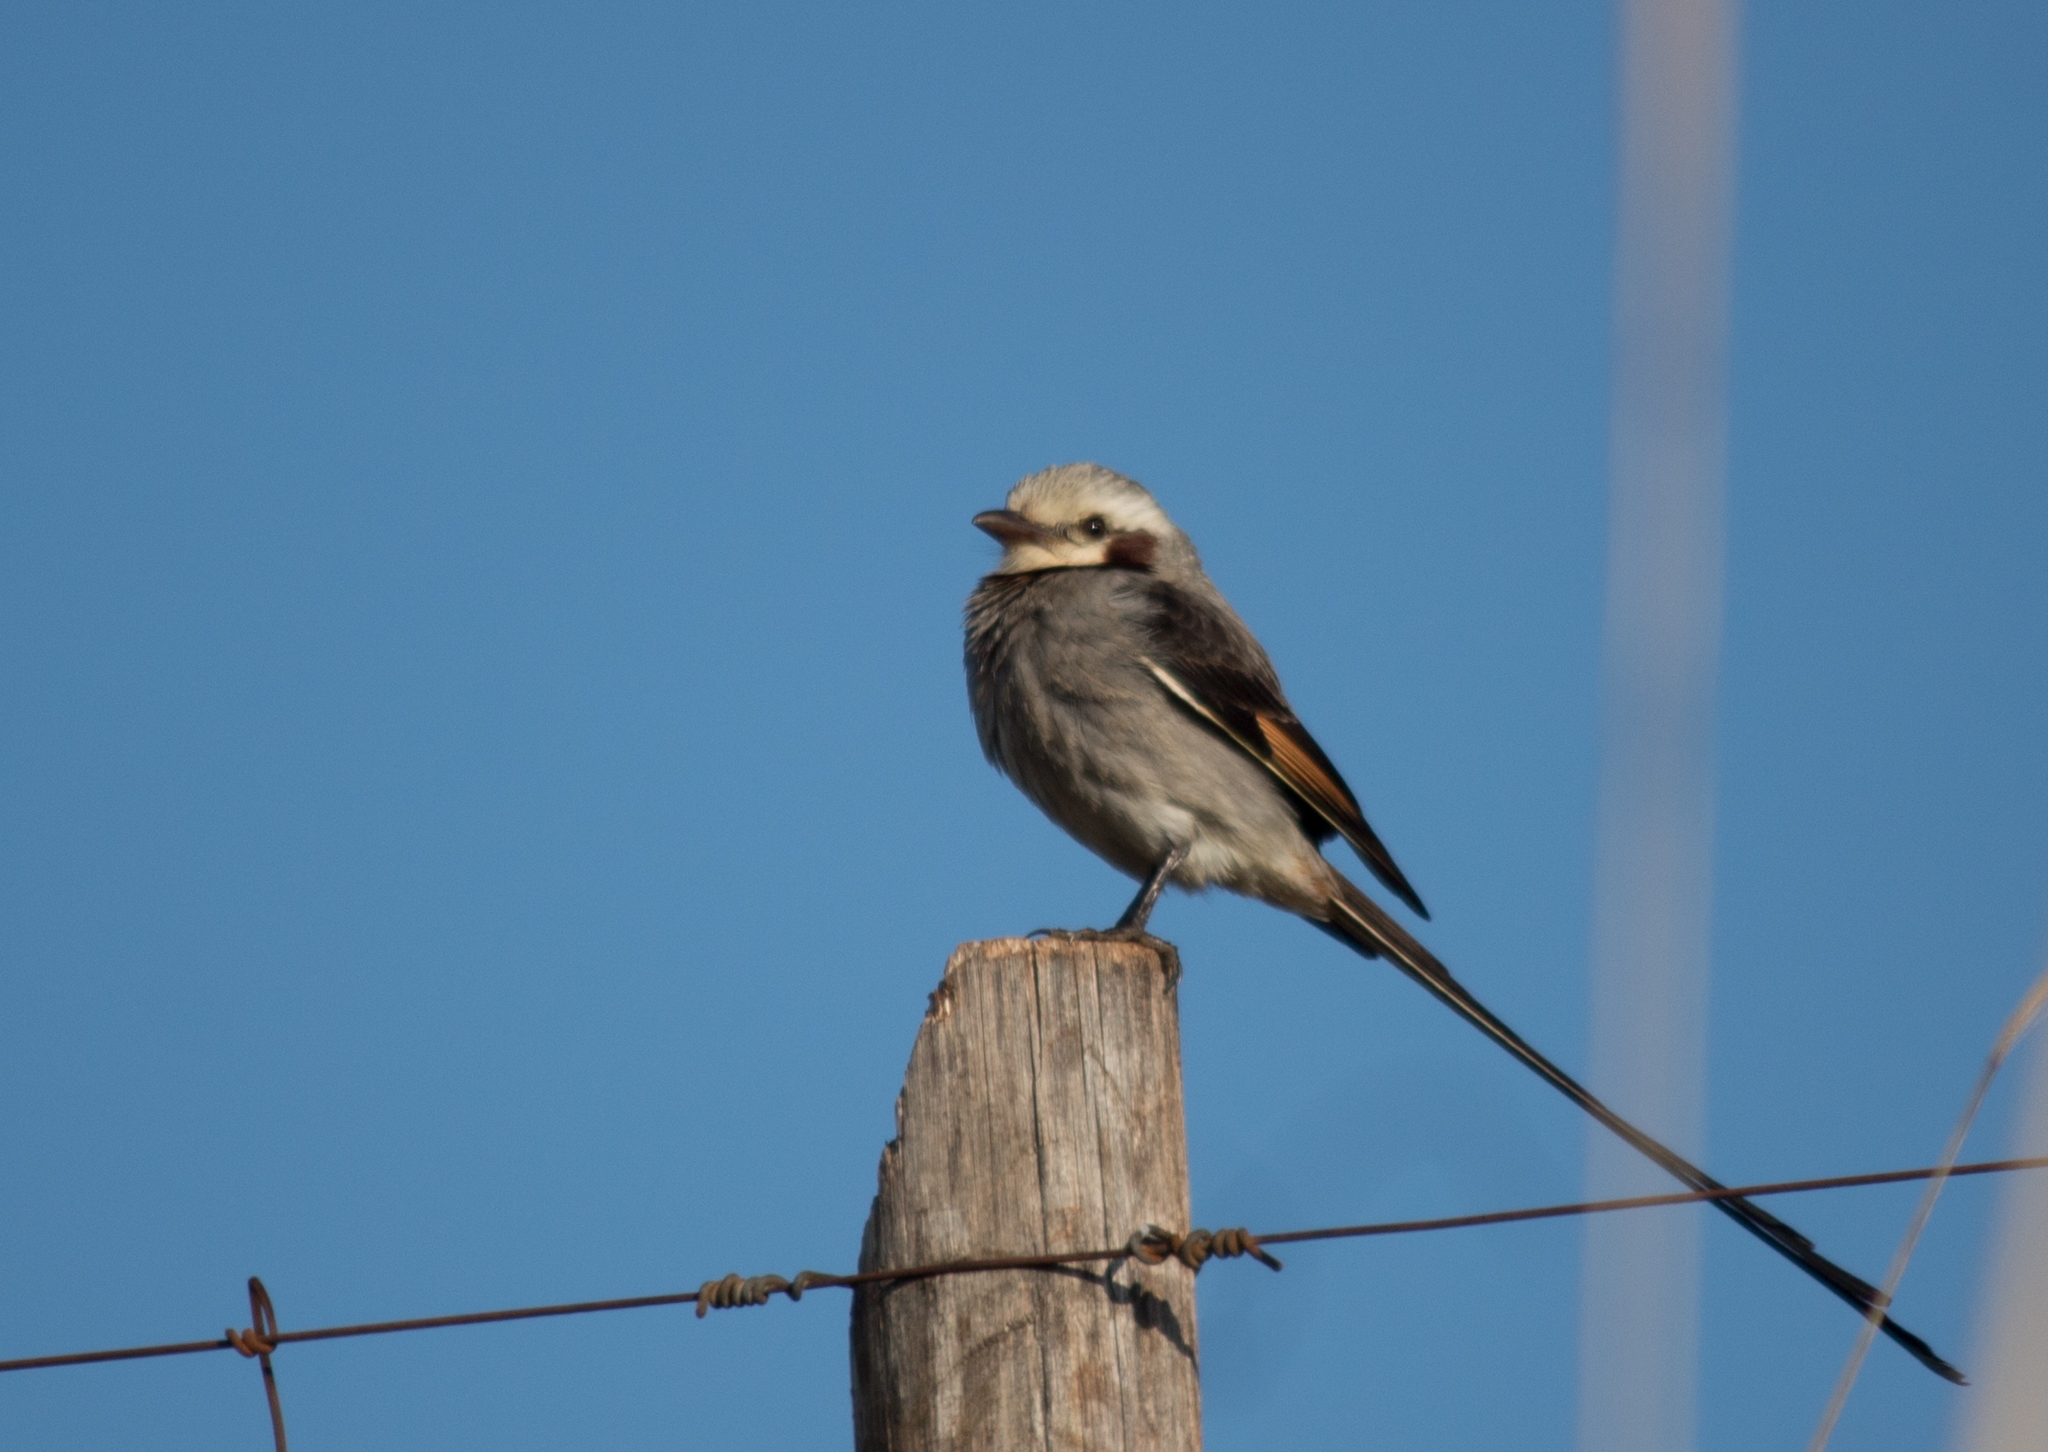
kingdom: Animalia
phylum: Chordata
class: Aves
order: Passeriformes
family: Tyrannidae
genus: Gubernetes
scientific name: Gubernetes yetapa
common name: Streamer-tailed tyrant
